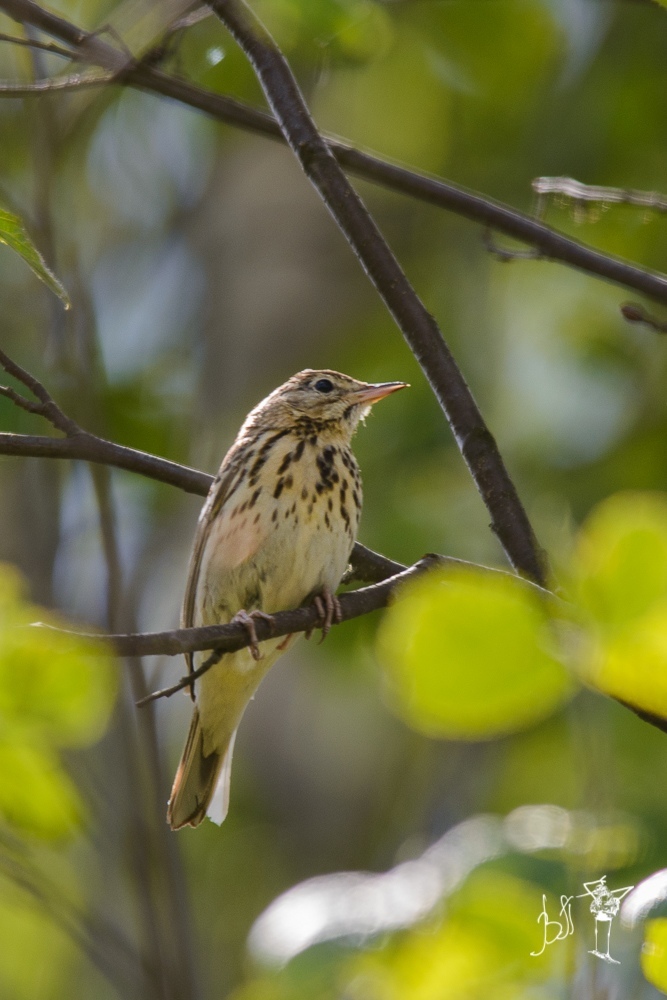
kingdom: Animalia
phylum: Chordata
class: Aves
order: Passeriformes
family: Motacillidae
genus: Anthus
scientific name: Anthus trivialis
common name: Tree pipit
